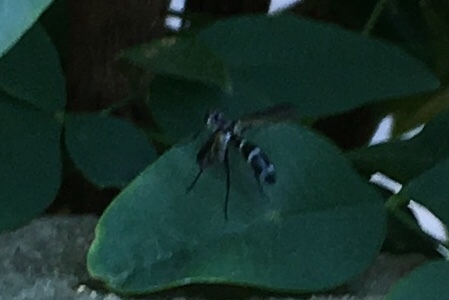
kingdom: Animalia
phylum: Arthropoda
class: Insecta
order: Diptera
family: Tachinidae
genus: Cordyligaster
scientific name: Cordyligaster septentrionalis
